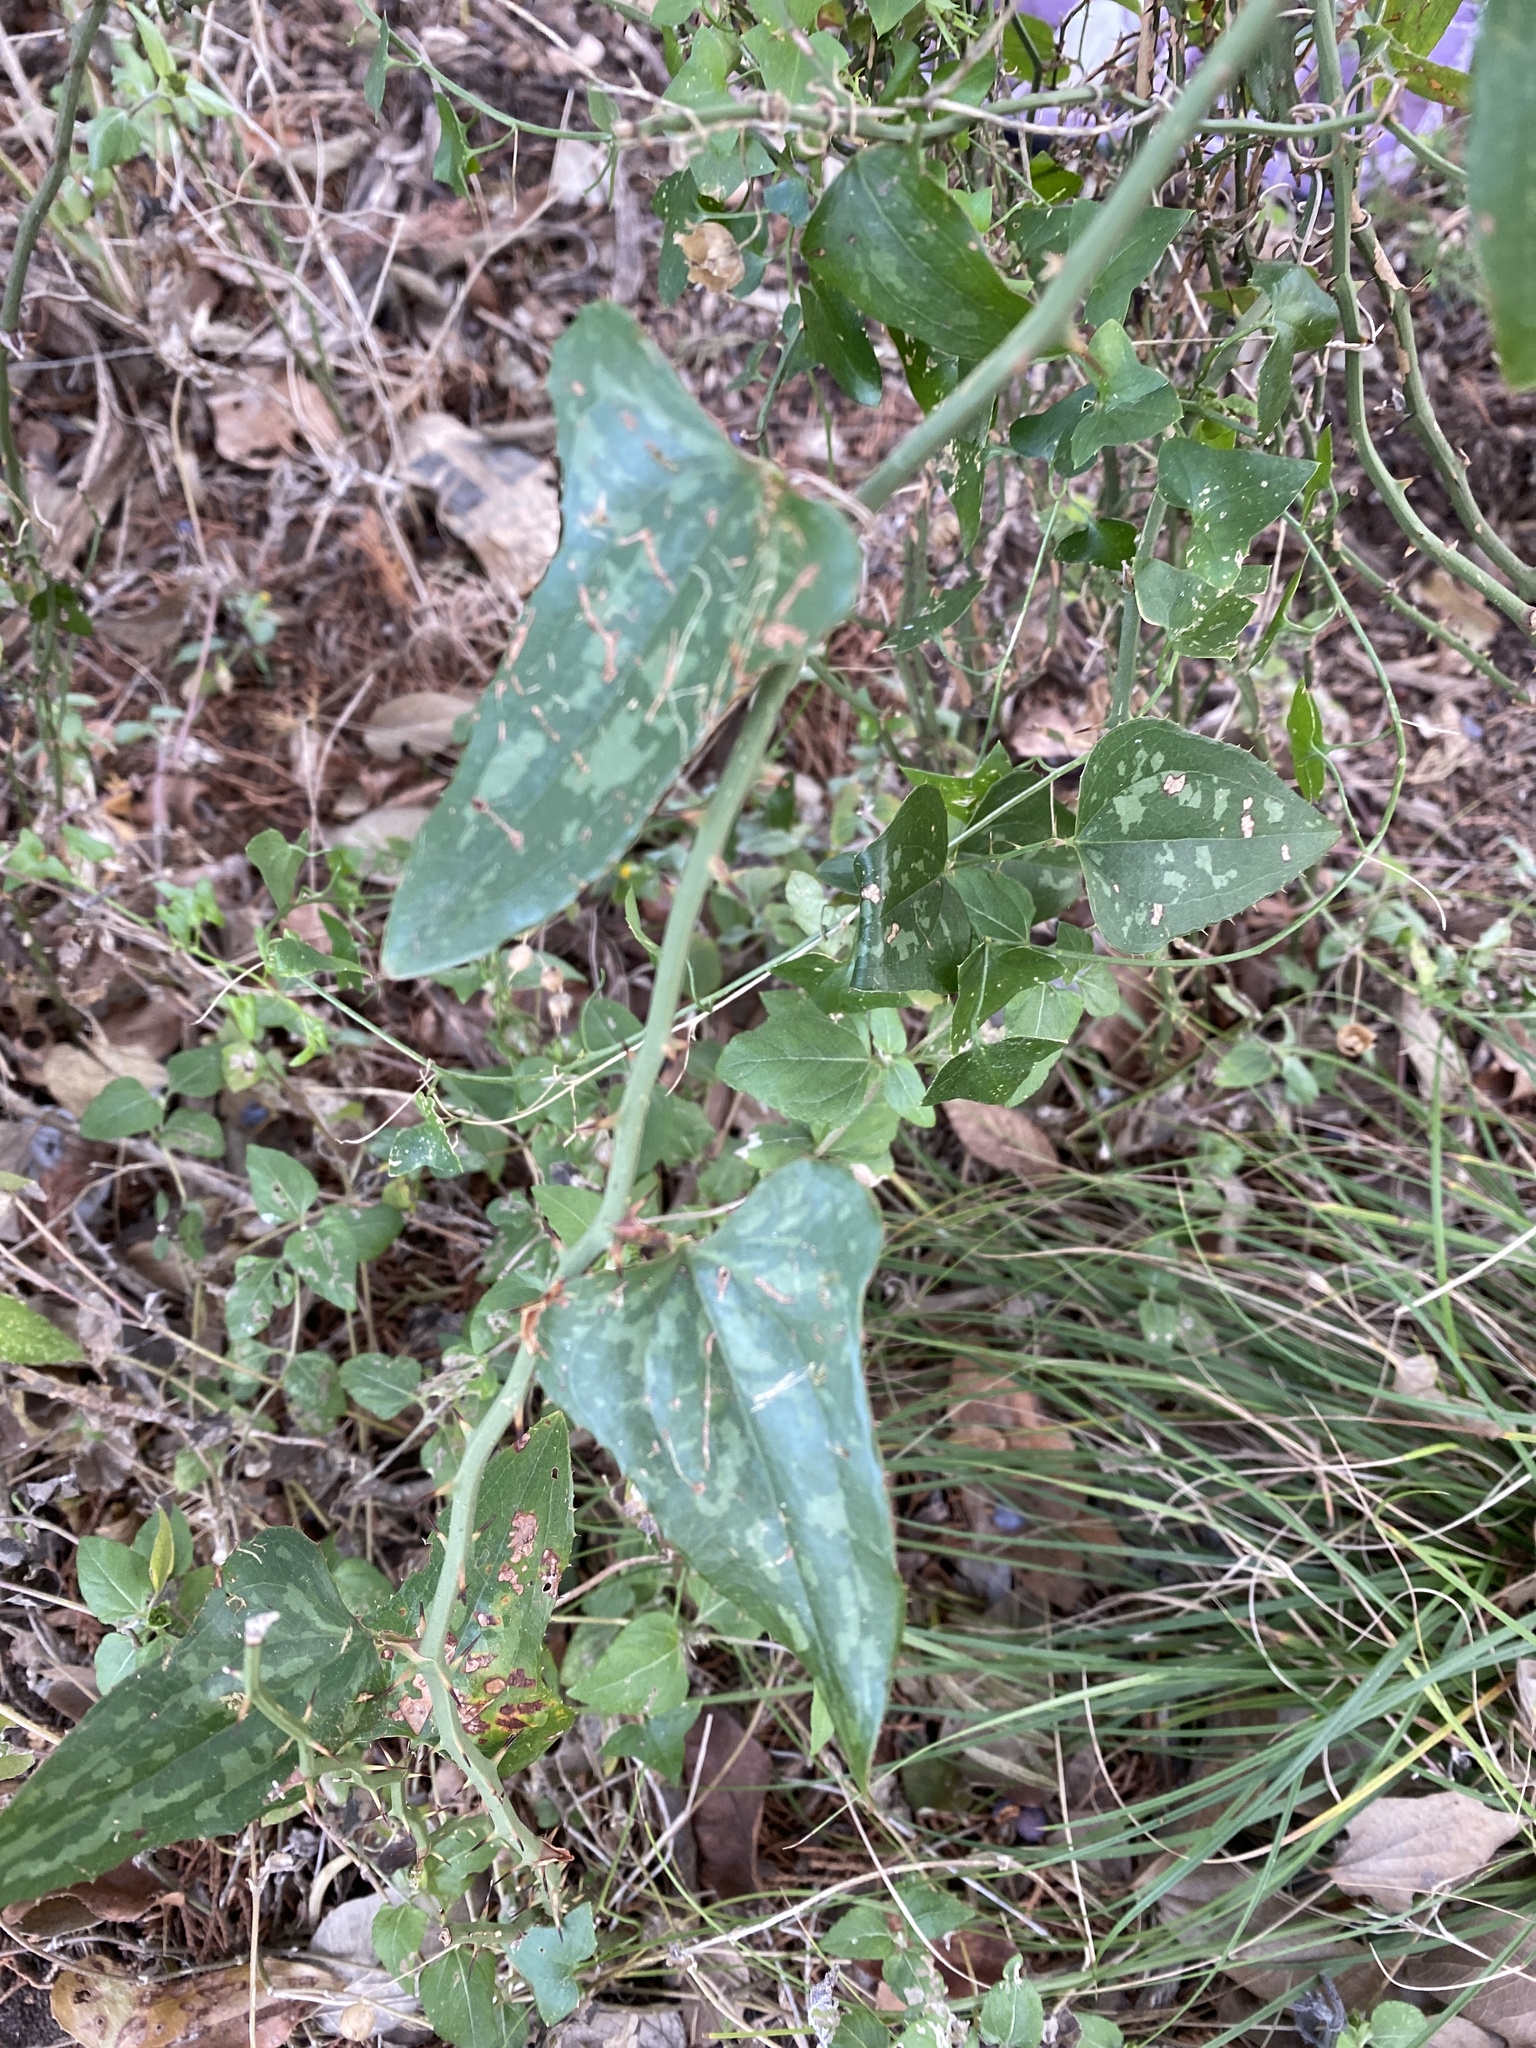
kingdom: Plantae
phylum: Tracheophyta
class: Liliopsida
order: Liliales
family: Smilacaceae
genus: Smilax
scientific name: Smilax bona-nox
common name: Catbrier
